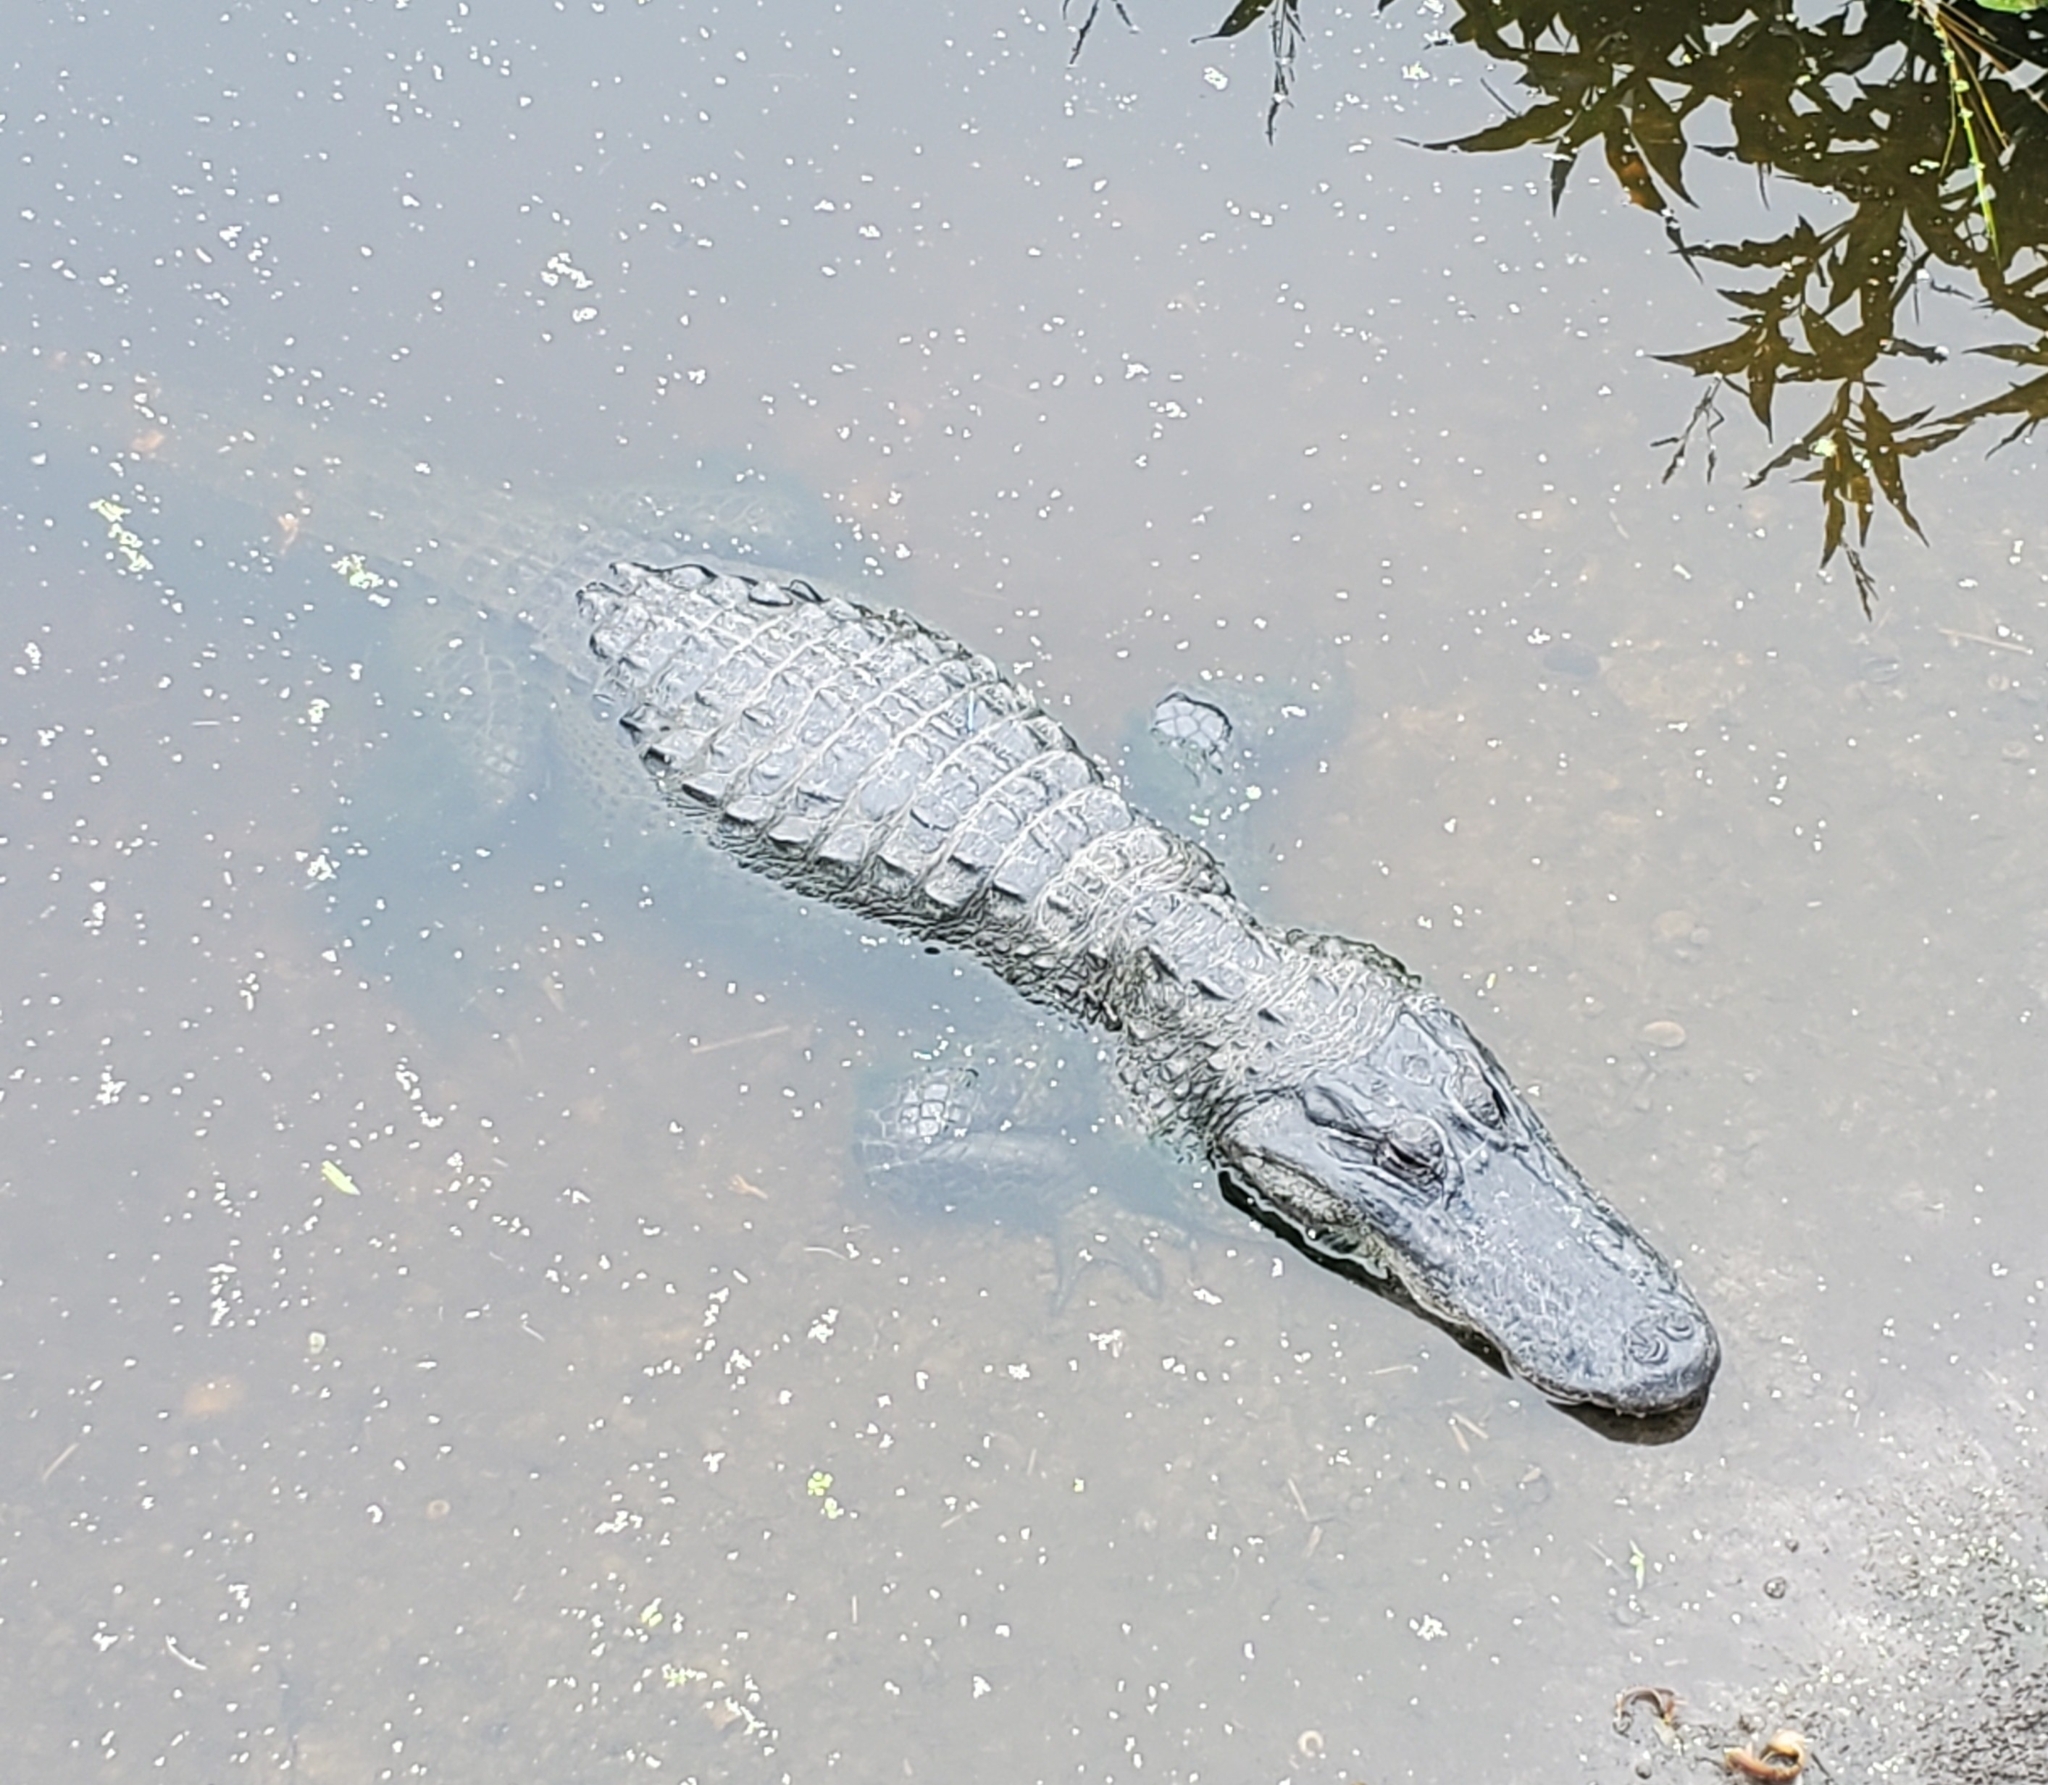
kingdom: Animalia
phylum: Chordata
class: Crocodylia
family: Alligatoridae
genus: Alligator
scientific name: Alligator mississippiensis
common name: American alligator
